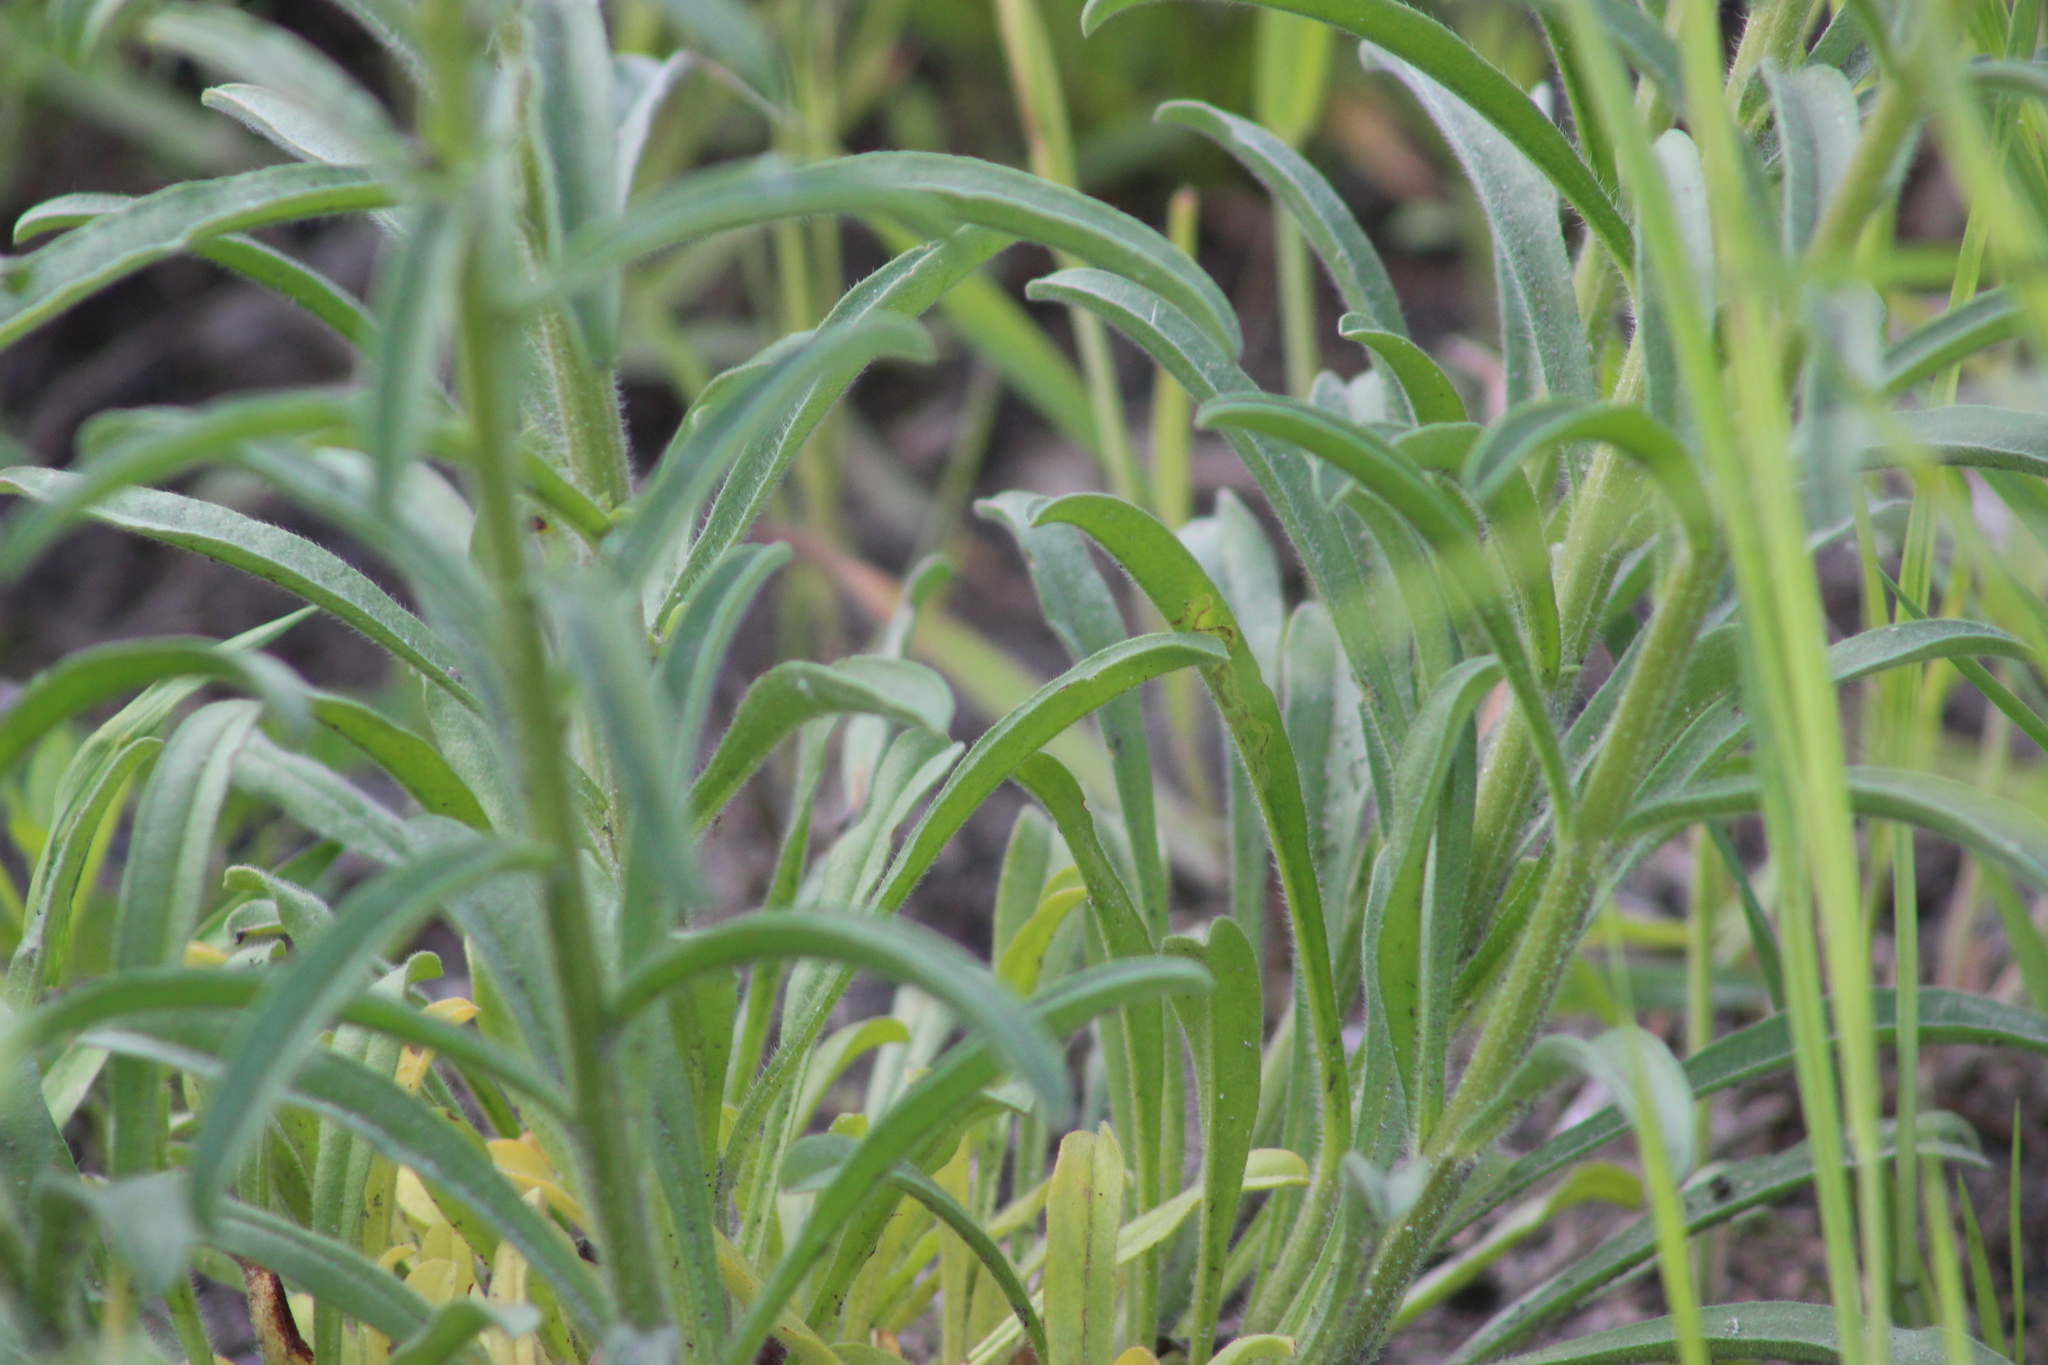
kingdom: Plantae
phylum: Tracheophyta
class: Magnoliopsida
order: Boraginales
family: Boraginaceae
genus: Lappula
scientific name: Lappula squarrosa
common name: European stickseed
